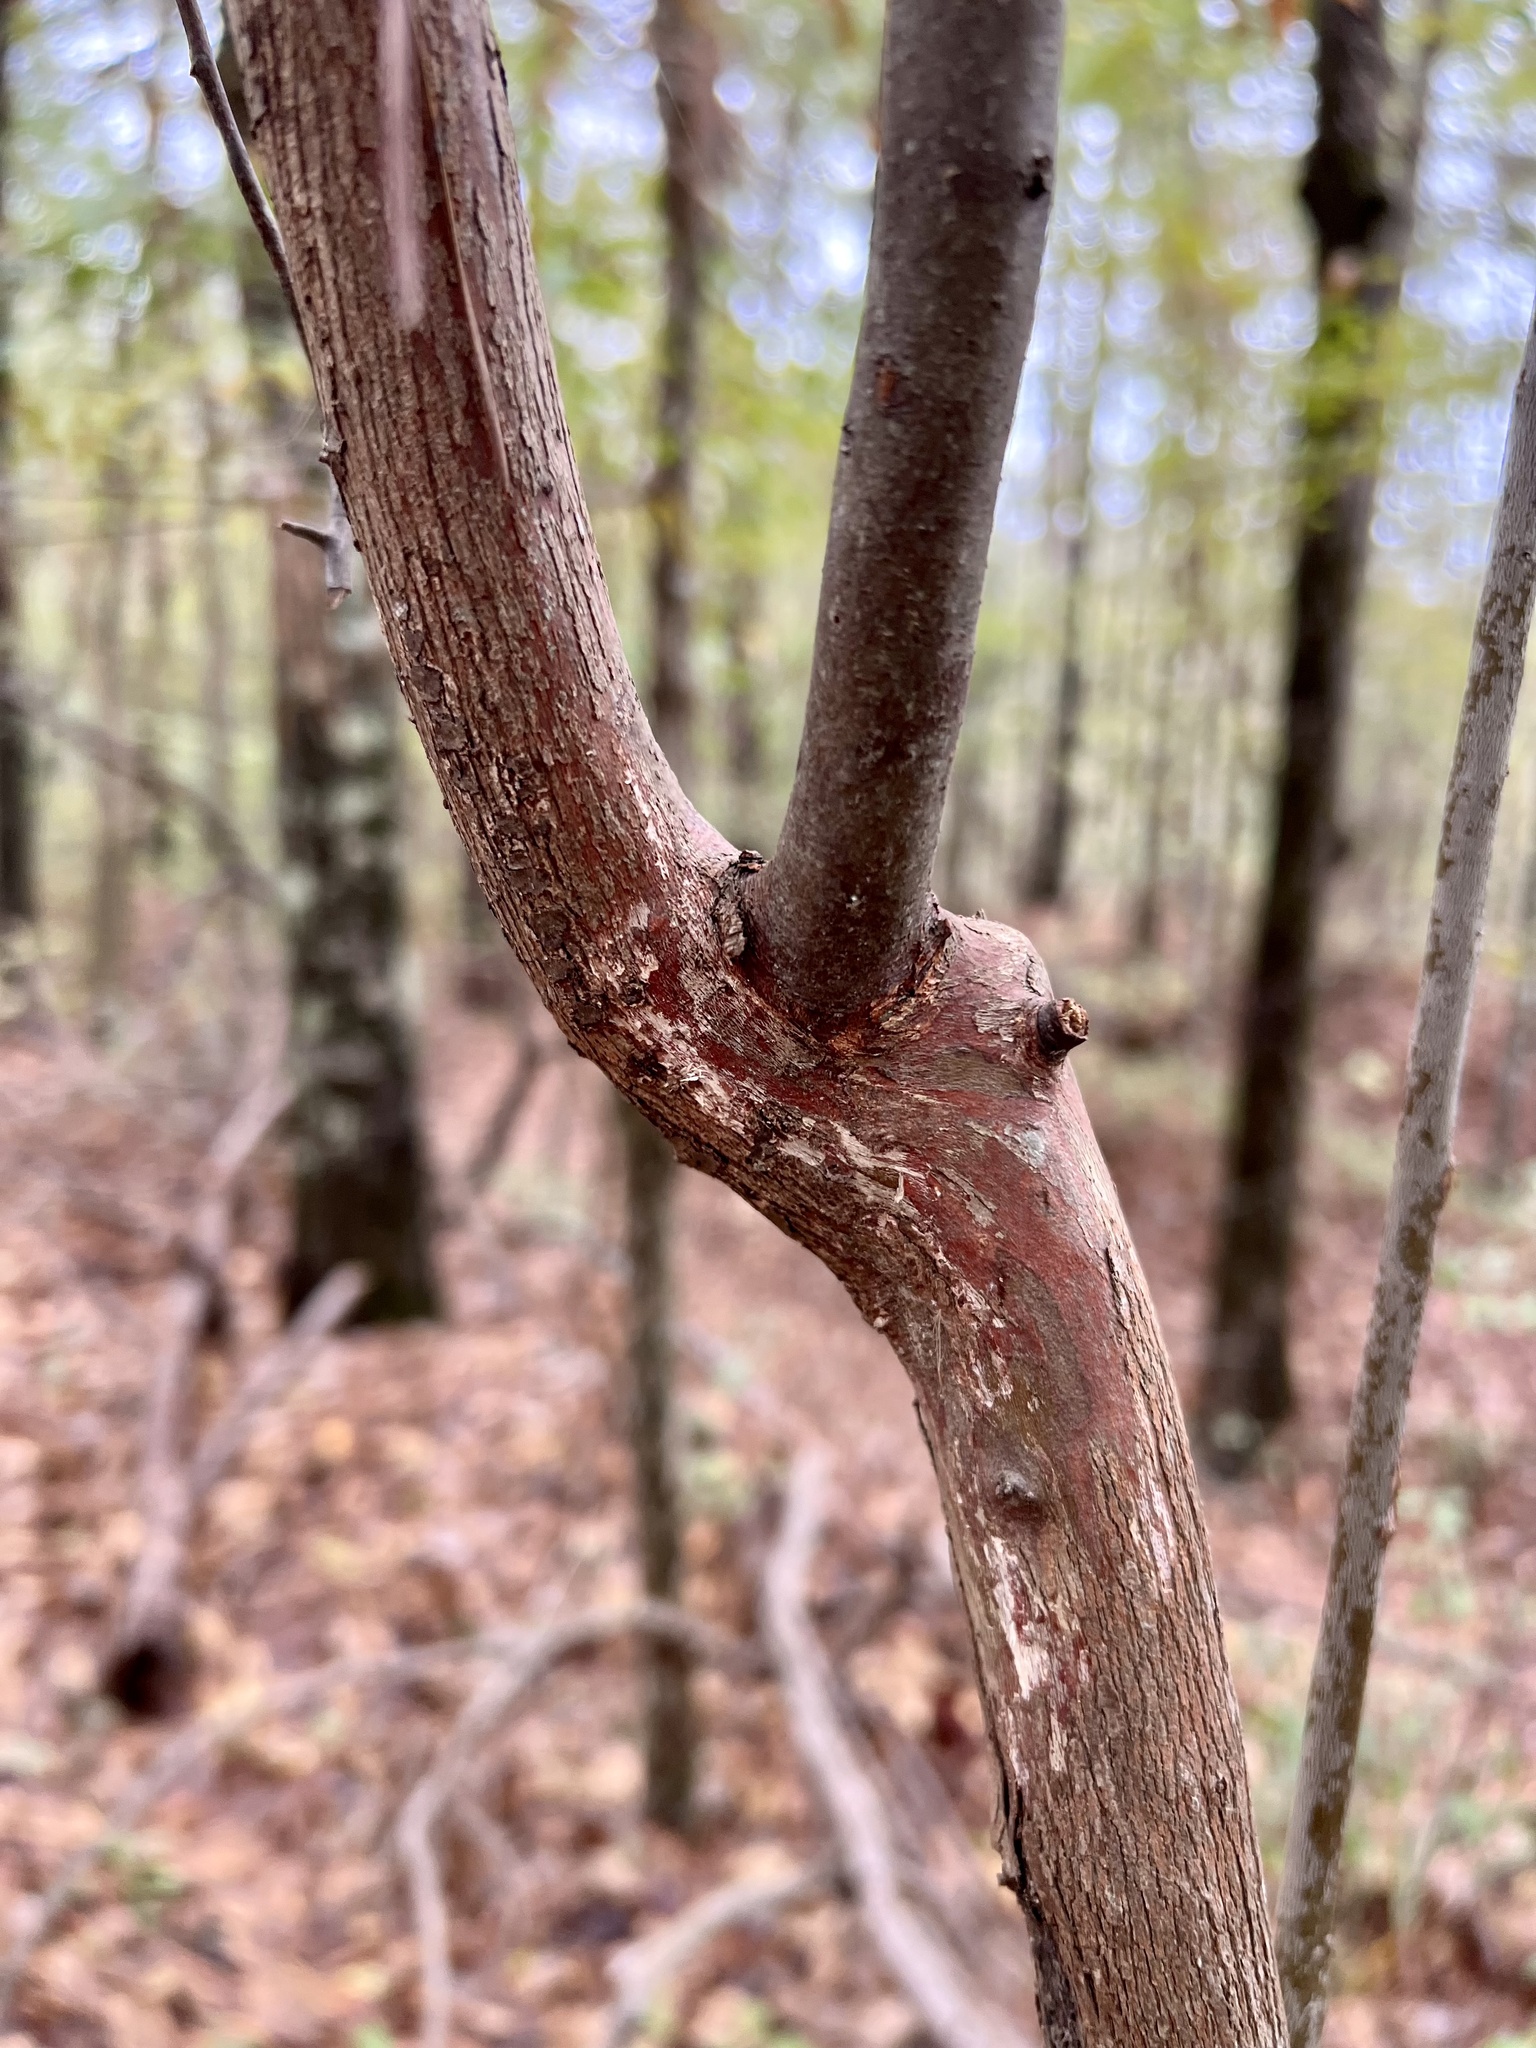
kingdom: Plantae
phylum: Tracheophyta
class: Magnoliopsida
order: Ericales
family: Ericaceae
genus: Vaccinium
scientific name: Vaccinium arboreum
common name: Farkleberry
